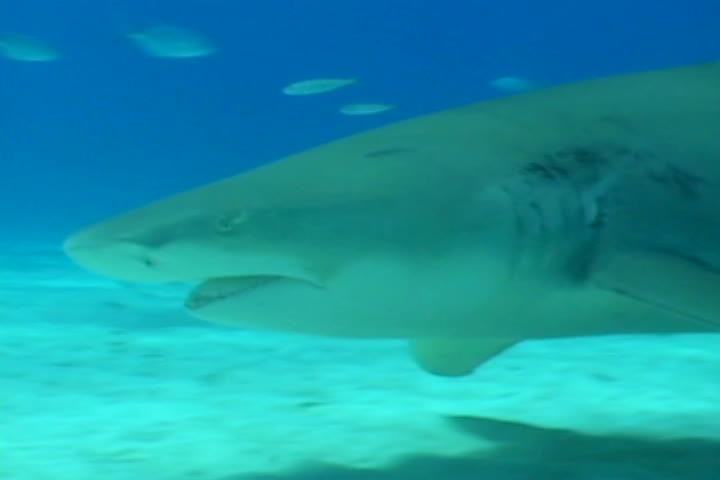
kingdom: Animalia
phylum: Chordata
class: Elasmobranchii
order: Carcharhiniformes
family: Carcharhinidae
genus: Negaprion
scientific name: Negaprion brevirostris
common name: Lemon shark
